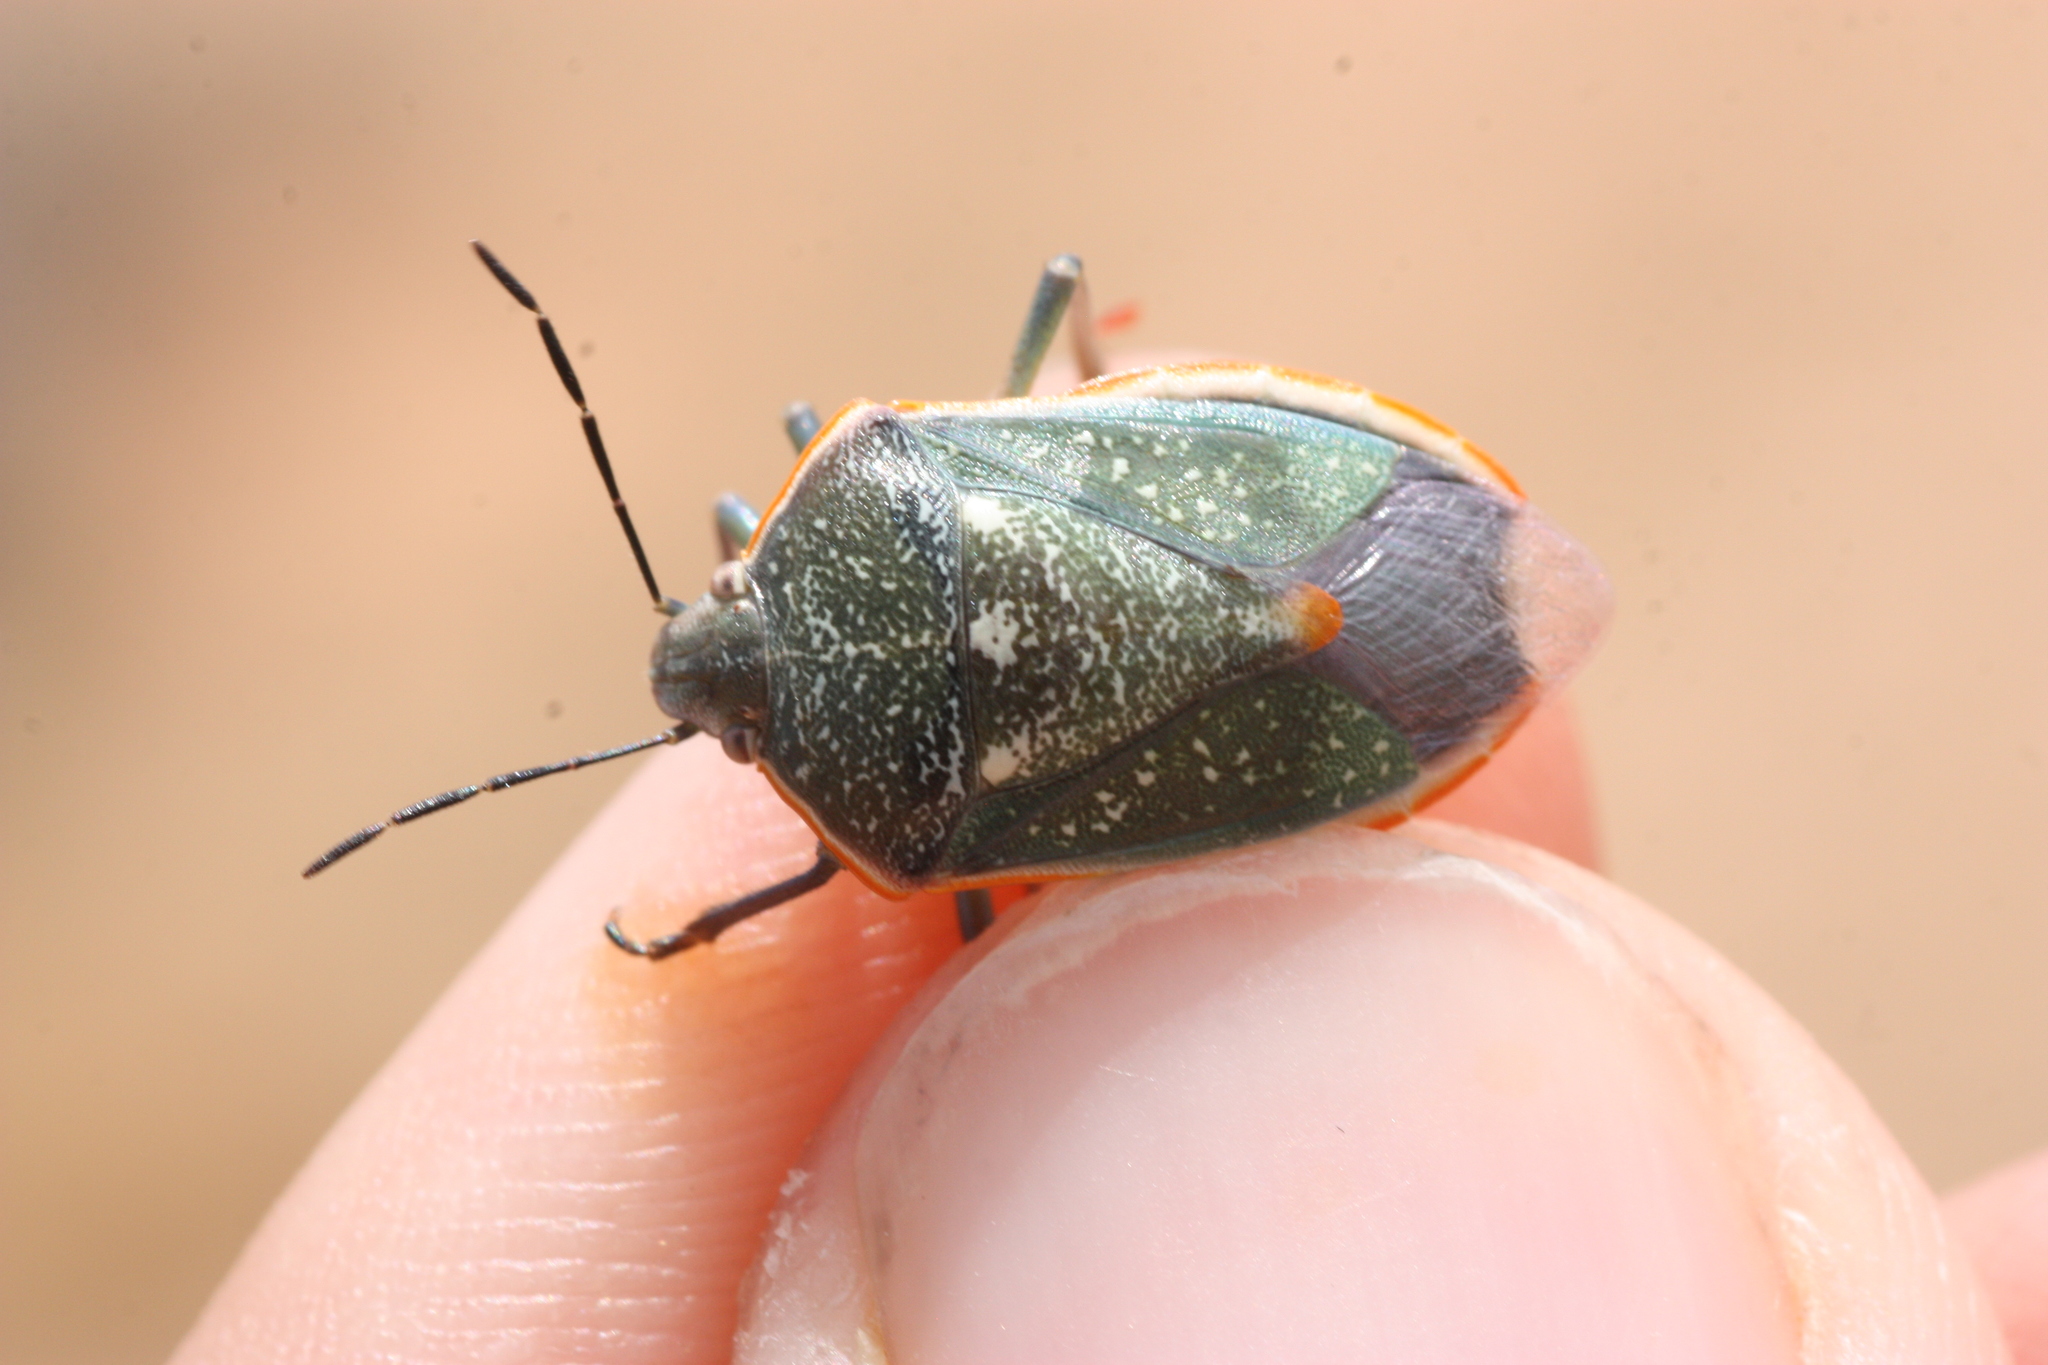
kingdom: Animalia
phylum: Arthropoda
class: Insecta
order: Hemiptera
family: Pentatomidae
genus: Chlorochroa
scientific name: Chlorochroa sayi
